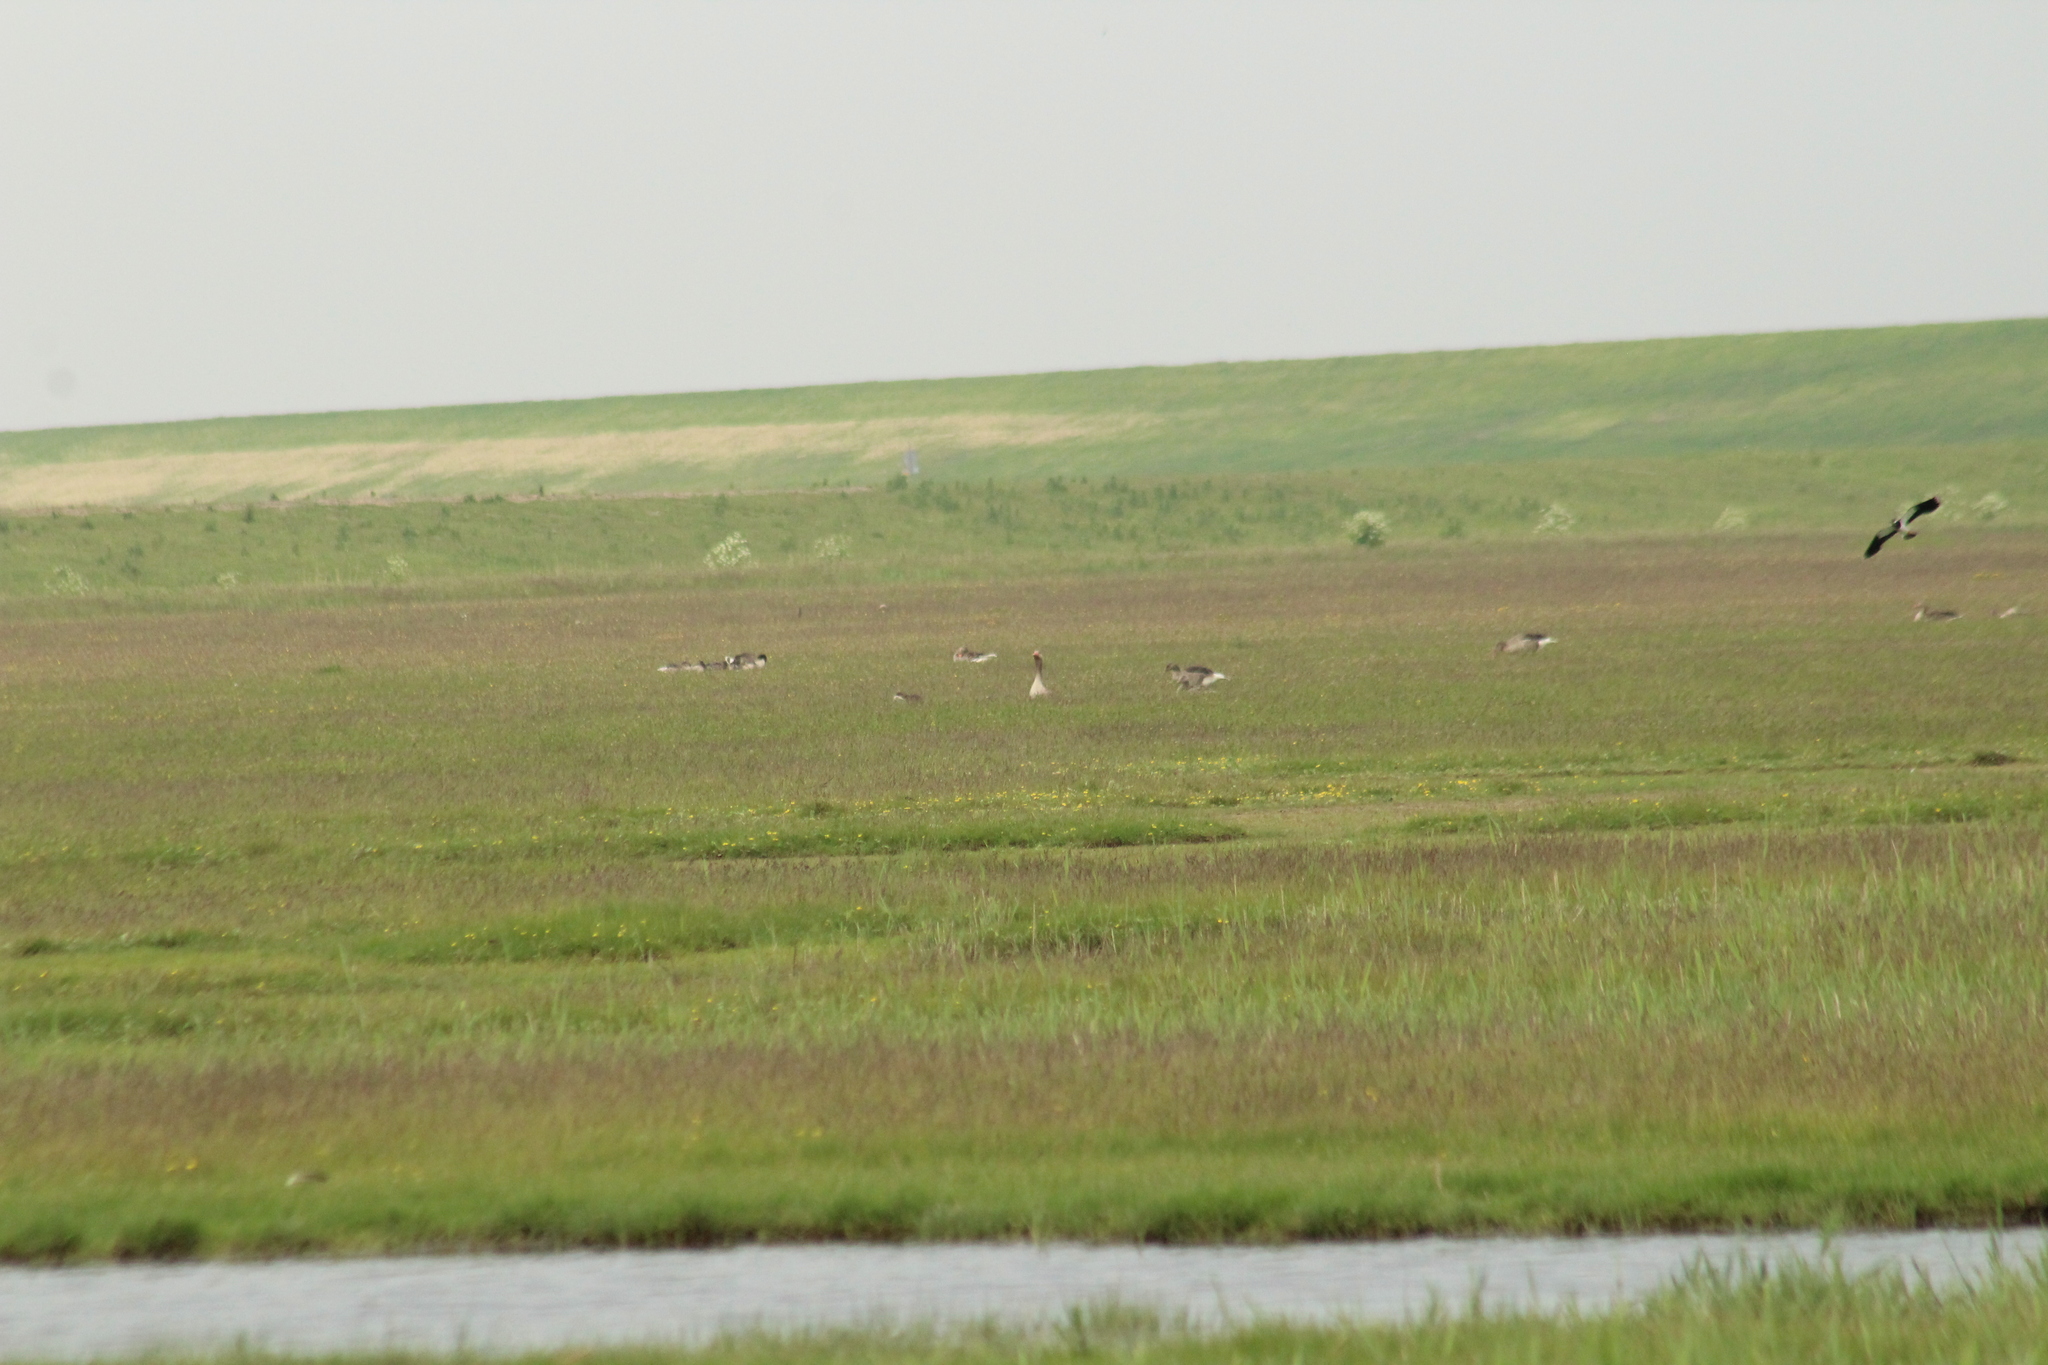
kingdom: Animalia
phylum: Chordata
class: Aves
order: Anseriformes
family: Anatidae
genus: Anser
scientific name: Anser anser
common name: Greylag goose
